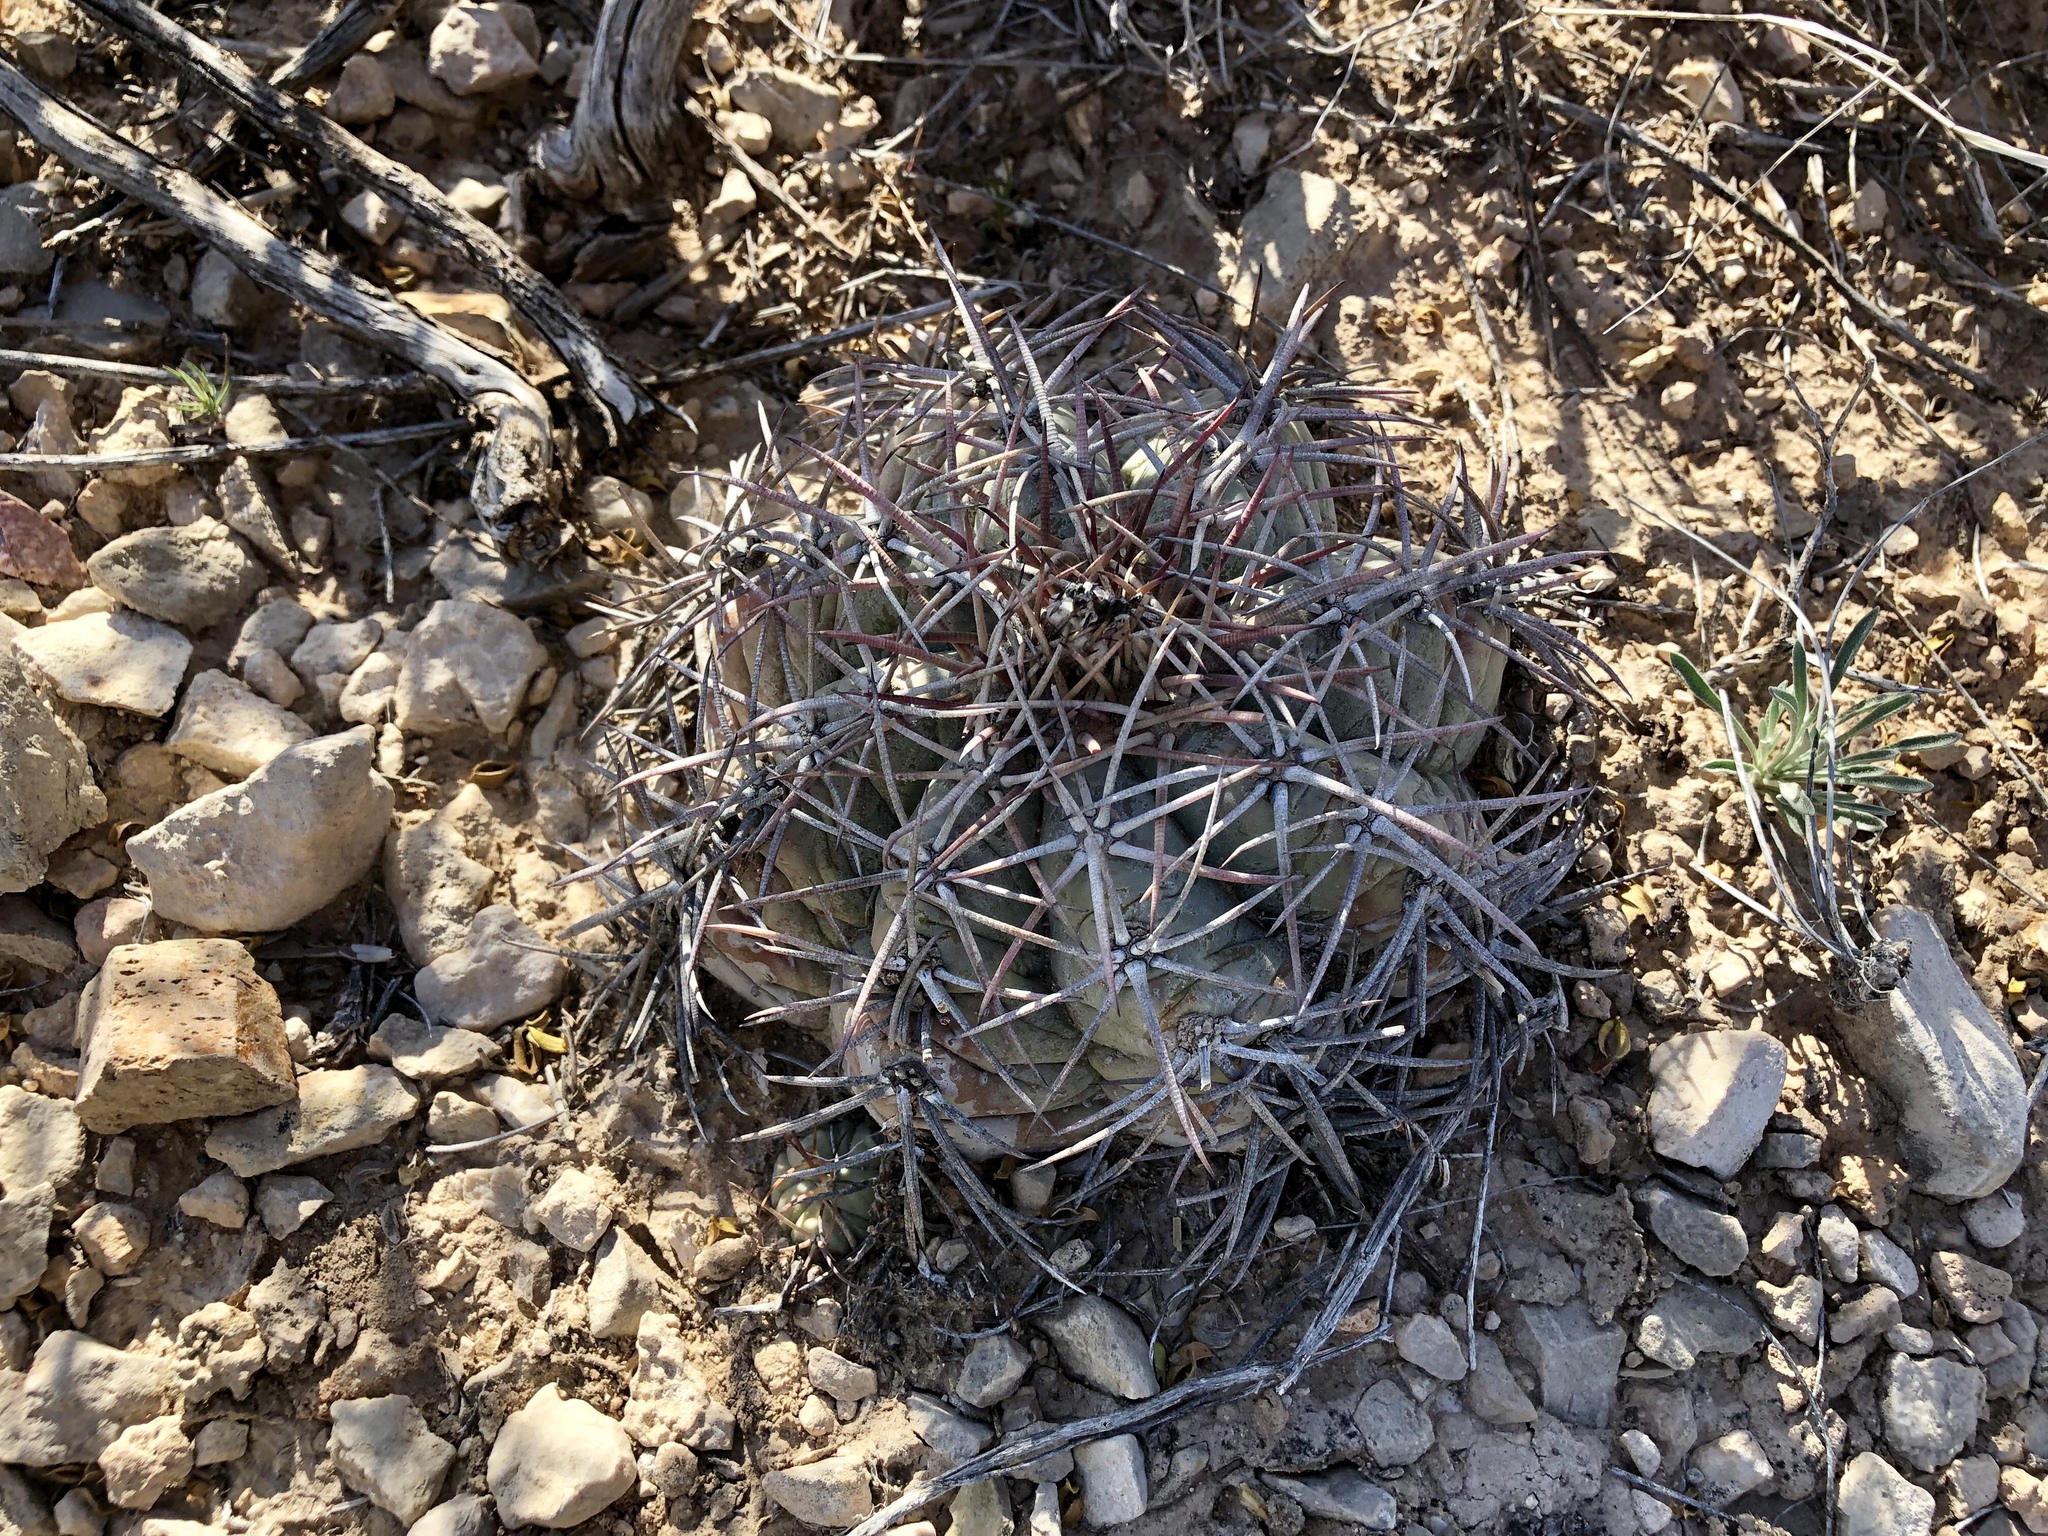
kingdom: Plantae
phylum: Tracheophyta
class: Magnoliopsida
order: Caryophyllales
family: Cactaceae
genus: Echinocactus
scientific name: Echinocactus horizonthalonius
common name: Devilshead
